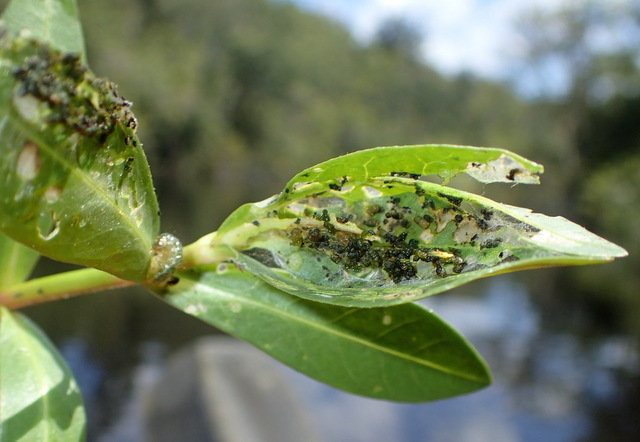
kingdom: Animalia
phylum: Arthropoda
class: Insecta
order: Coleoptera
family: Chrysomelidae
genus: Agasicles
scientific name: Agasicles hygrophila
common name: Alligatorweed flea beetle
